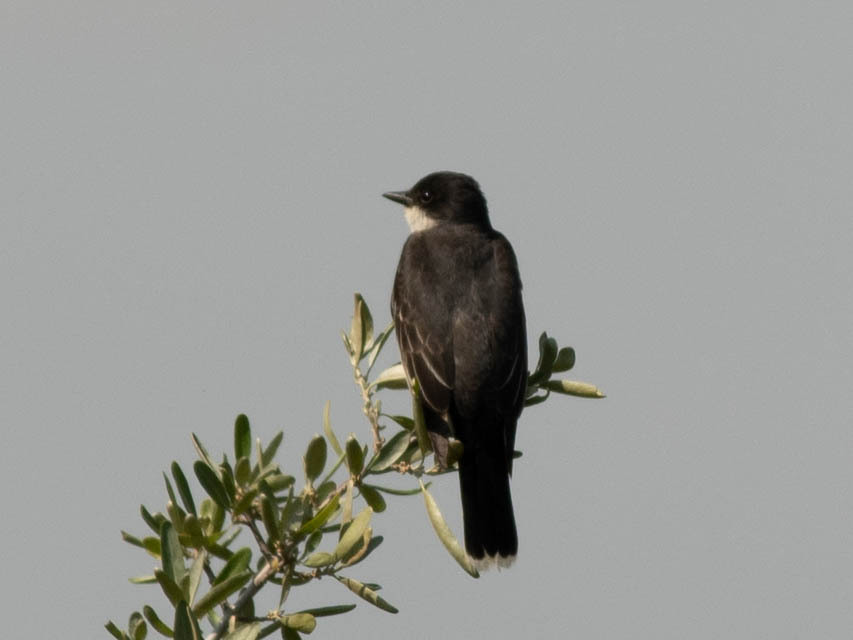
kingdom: Animalia
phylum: Chordata
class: Aves
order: Passeriformes
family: Tyrannidae
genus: Tyrannus
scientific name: Tyrannus tyrannus
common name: Eastern kingbird
